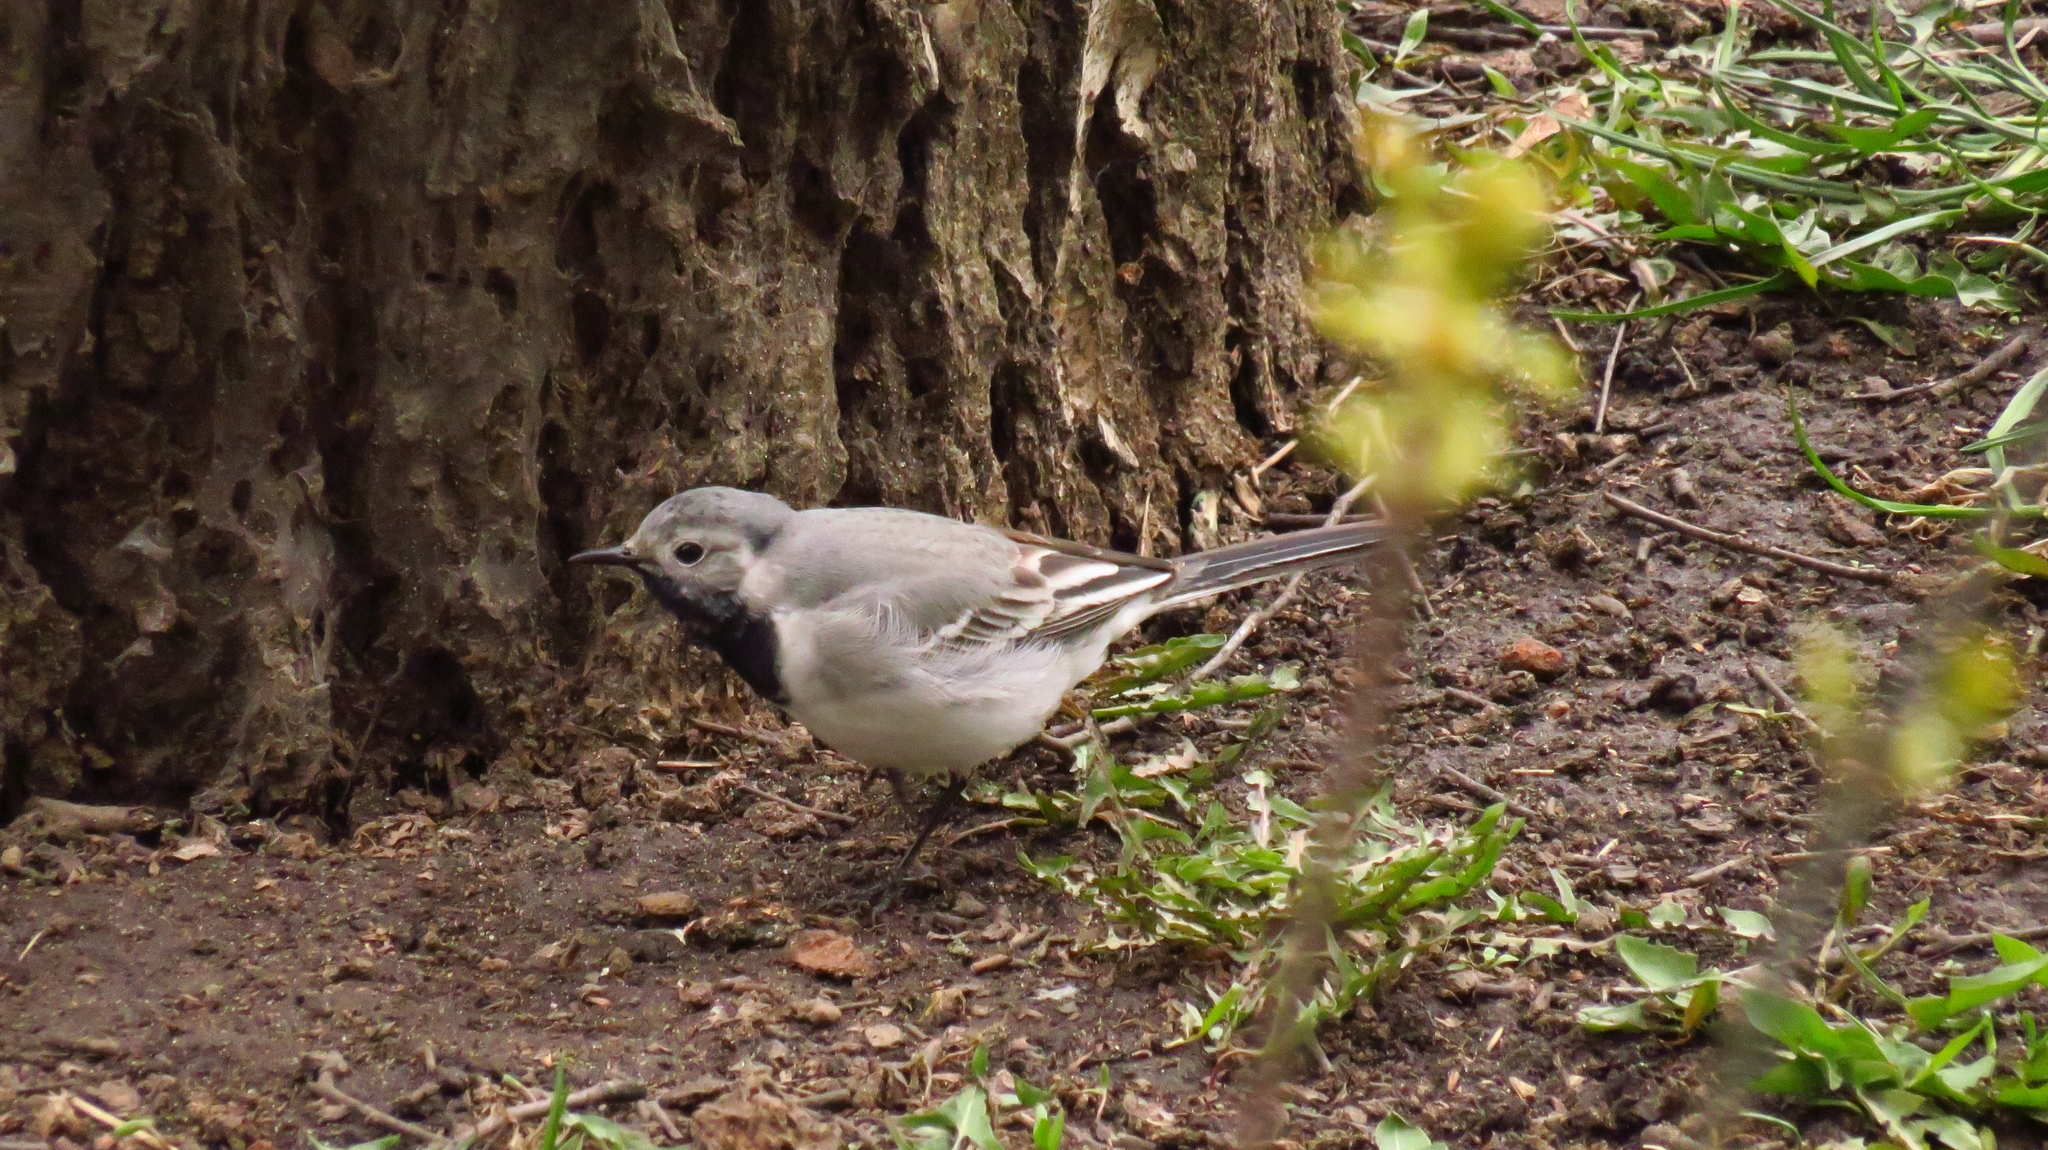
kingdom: Animalia
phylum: Chordata
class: Aves
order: Passeriformes
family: Motacillidae
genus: Motacilla
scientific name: Motacilla alba
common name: White wagtail
